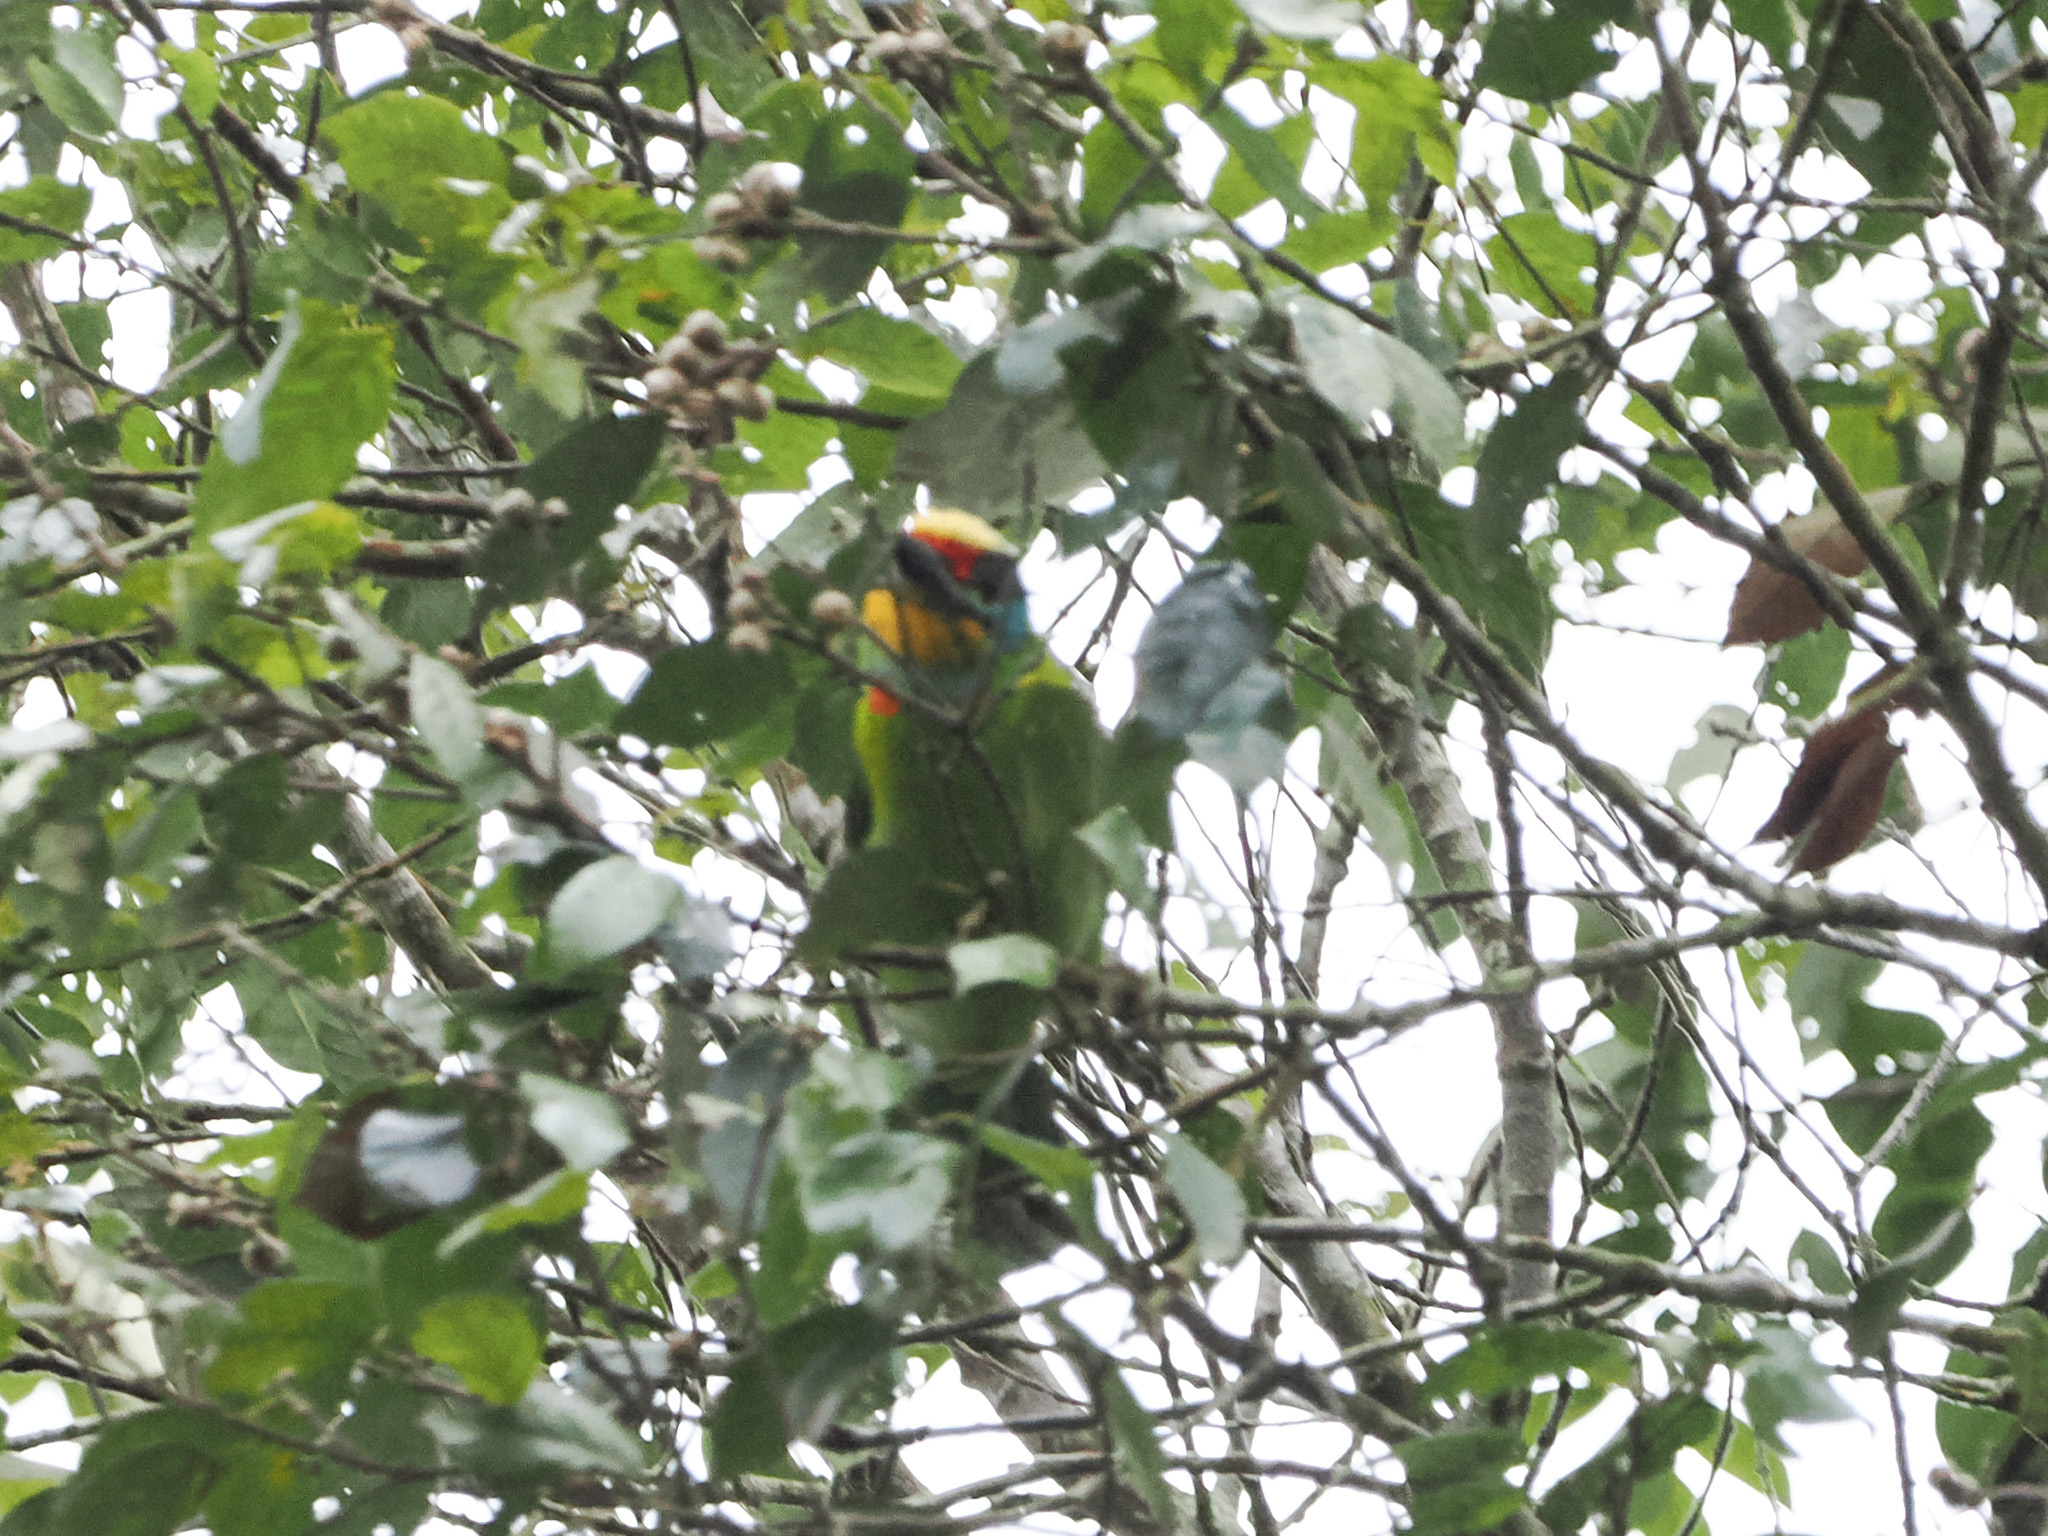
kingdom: Animalia
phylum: Chordata
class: Aves
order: Piciformes
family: Megalaimidae
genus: Psilopogon
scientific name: Psilopogon oorti
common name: Black-browed barbet
